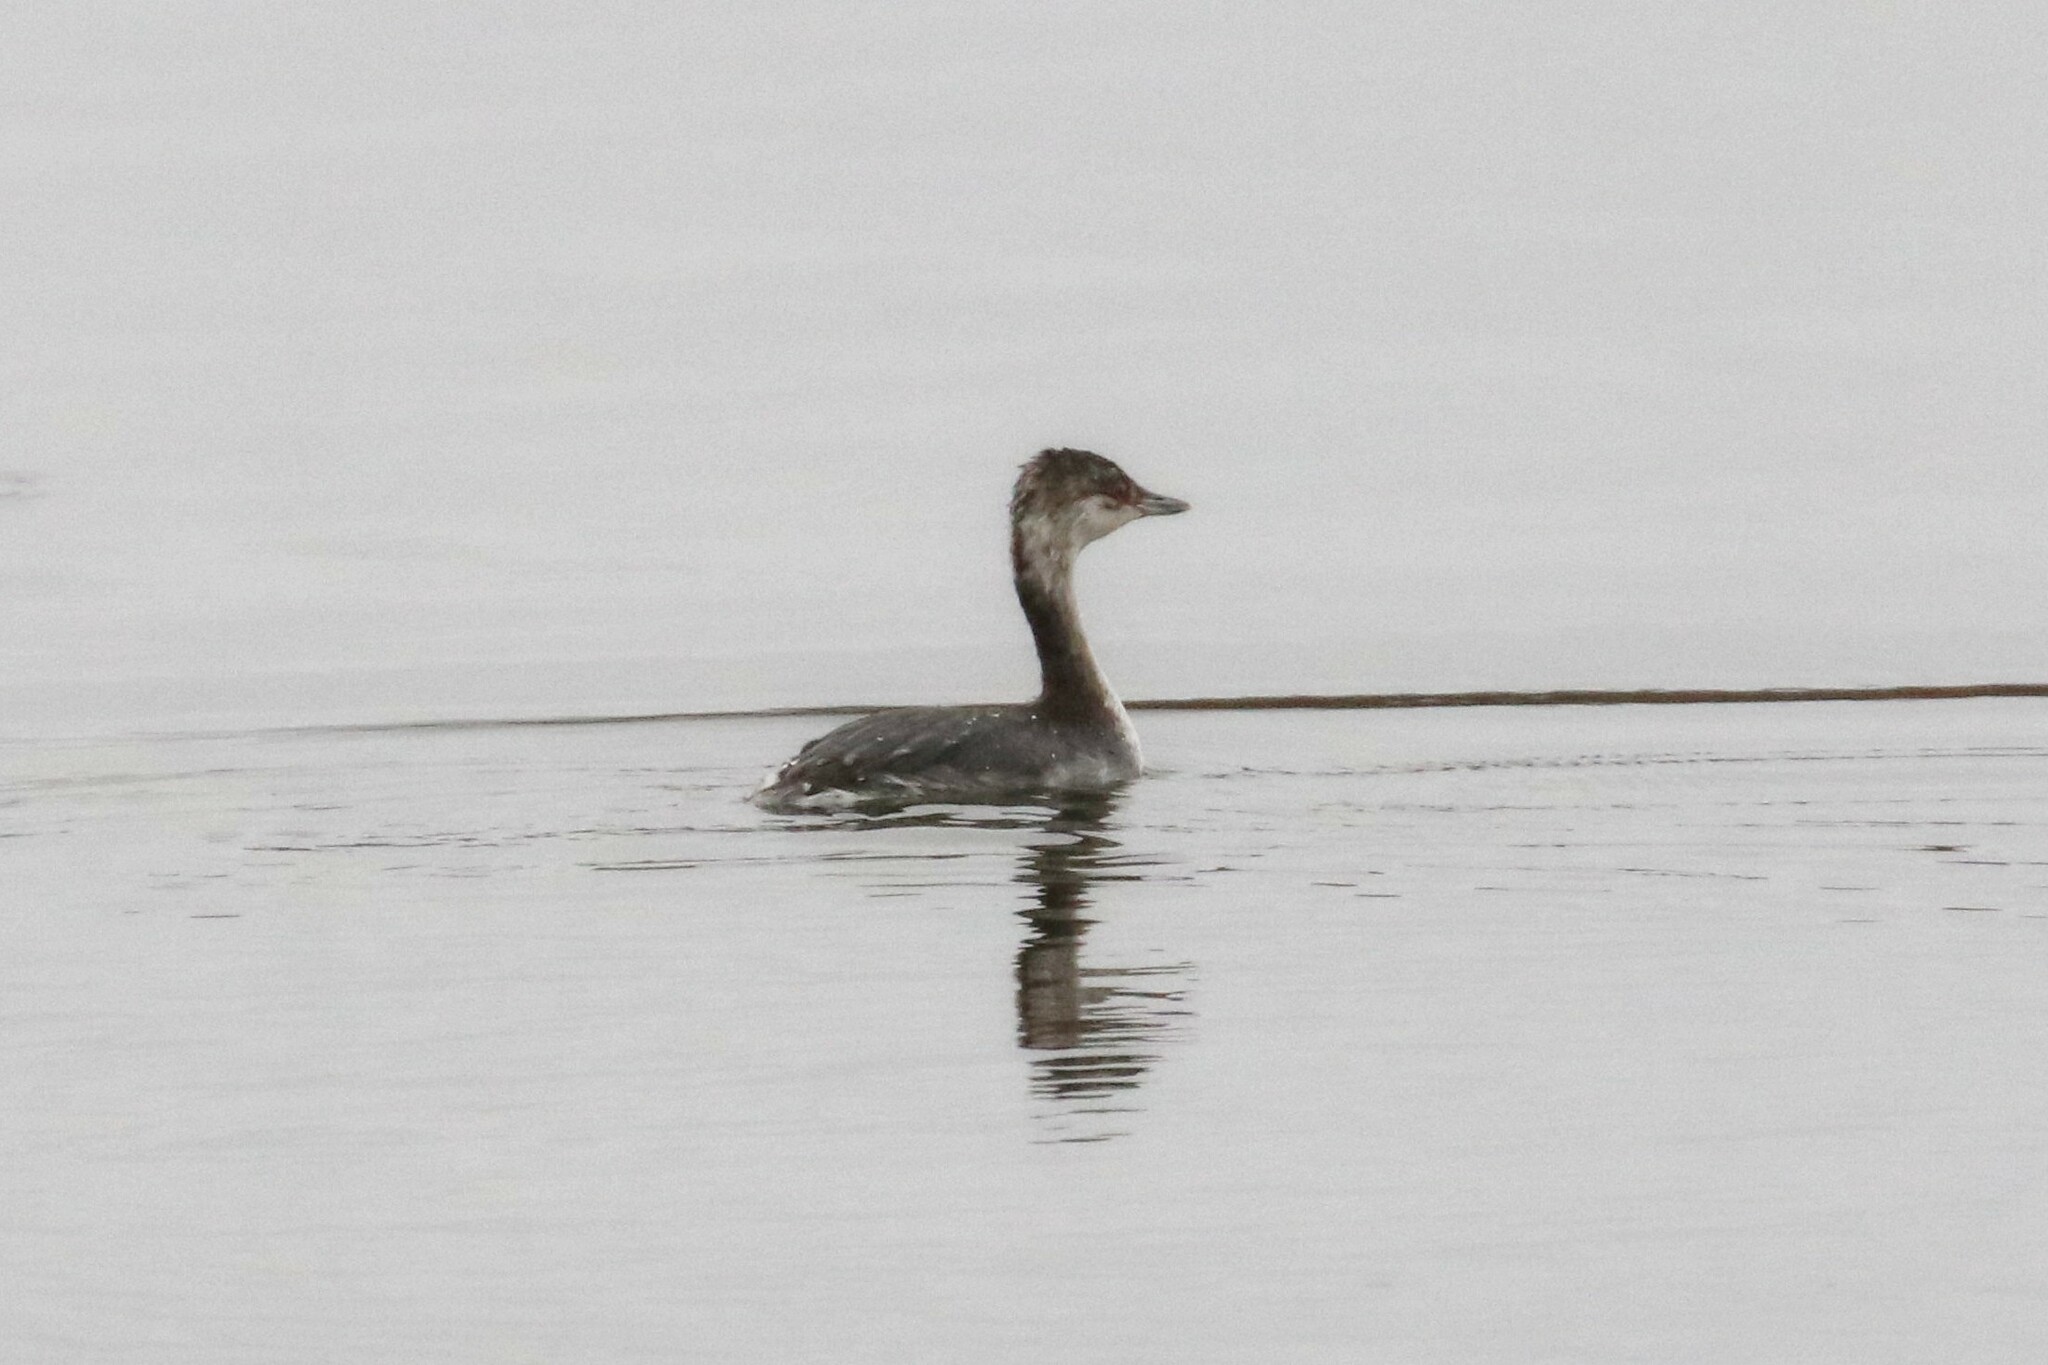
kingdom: Animalia
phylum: Chordata
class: Aves
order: Podicipediformes
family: Podicipedidae
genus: Podiceps
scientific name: Podiceps auritus
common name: Horned grebe
